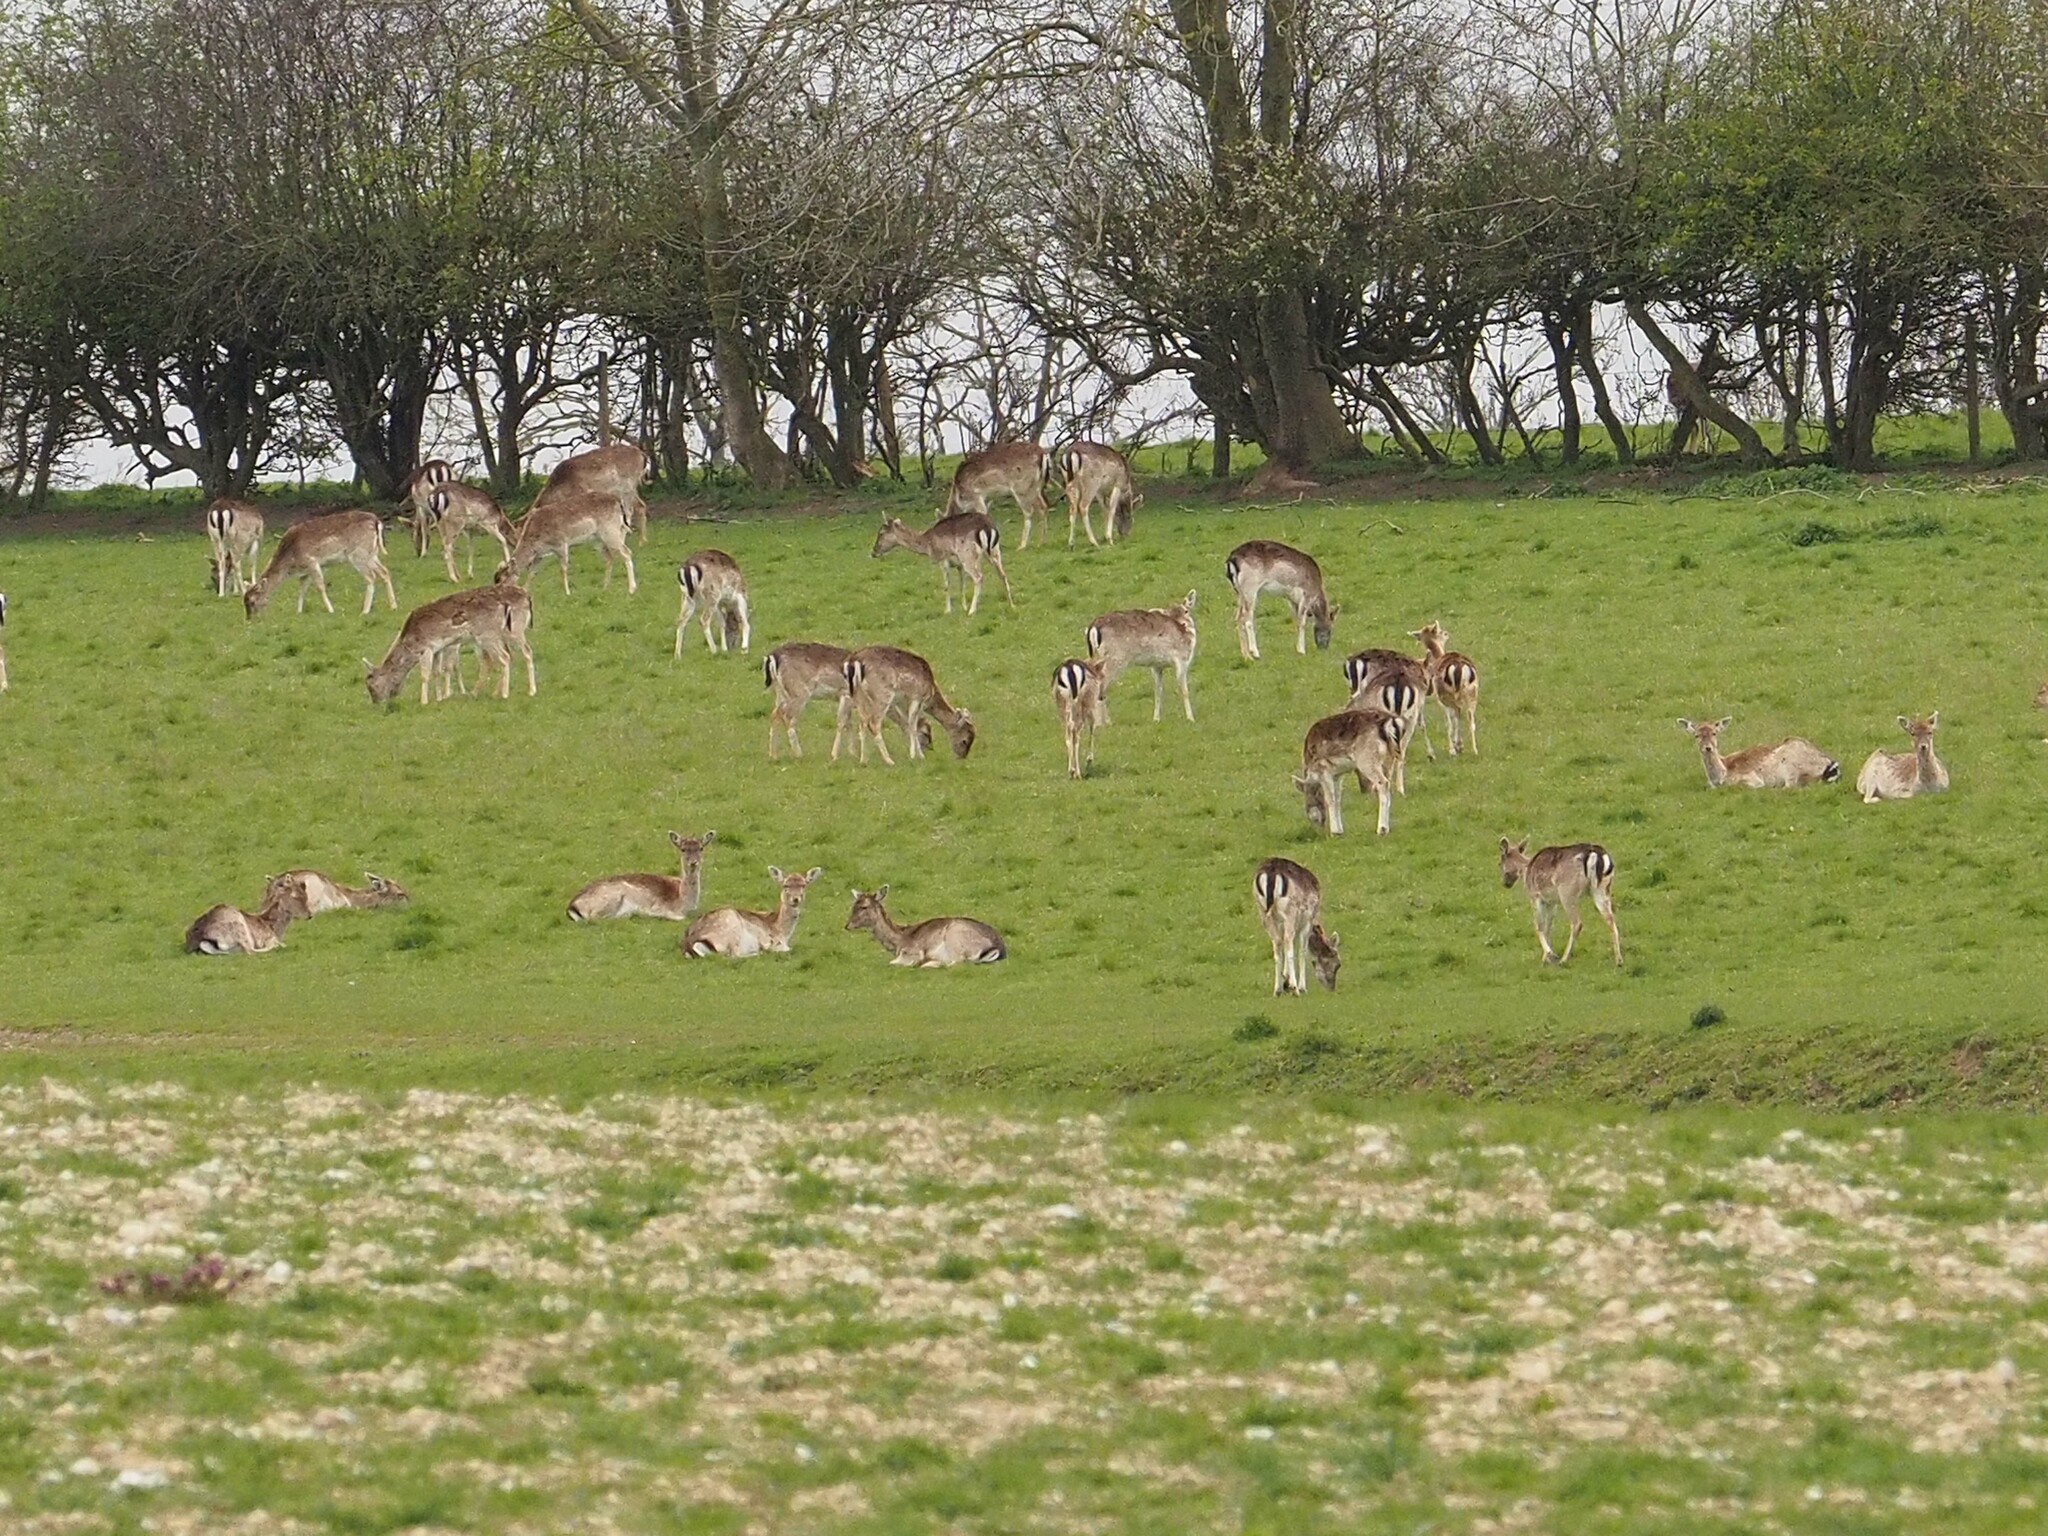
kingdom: Animalia
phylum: Chordata
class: Mammalia
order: Artiodactyla
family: Cervidae
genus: Dama
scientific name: Dama dama
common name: Fallow deer
